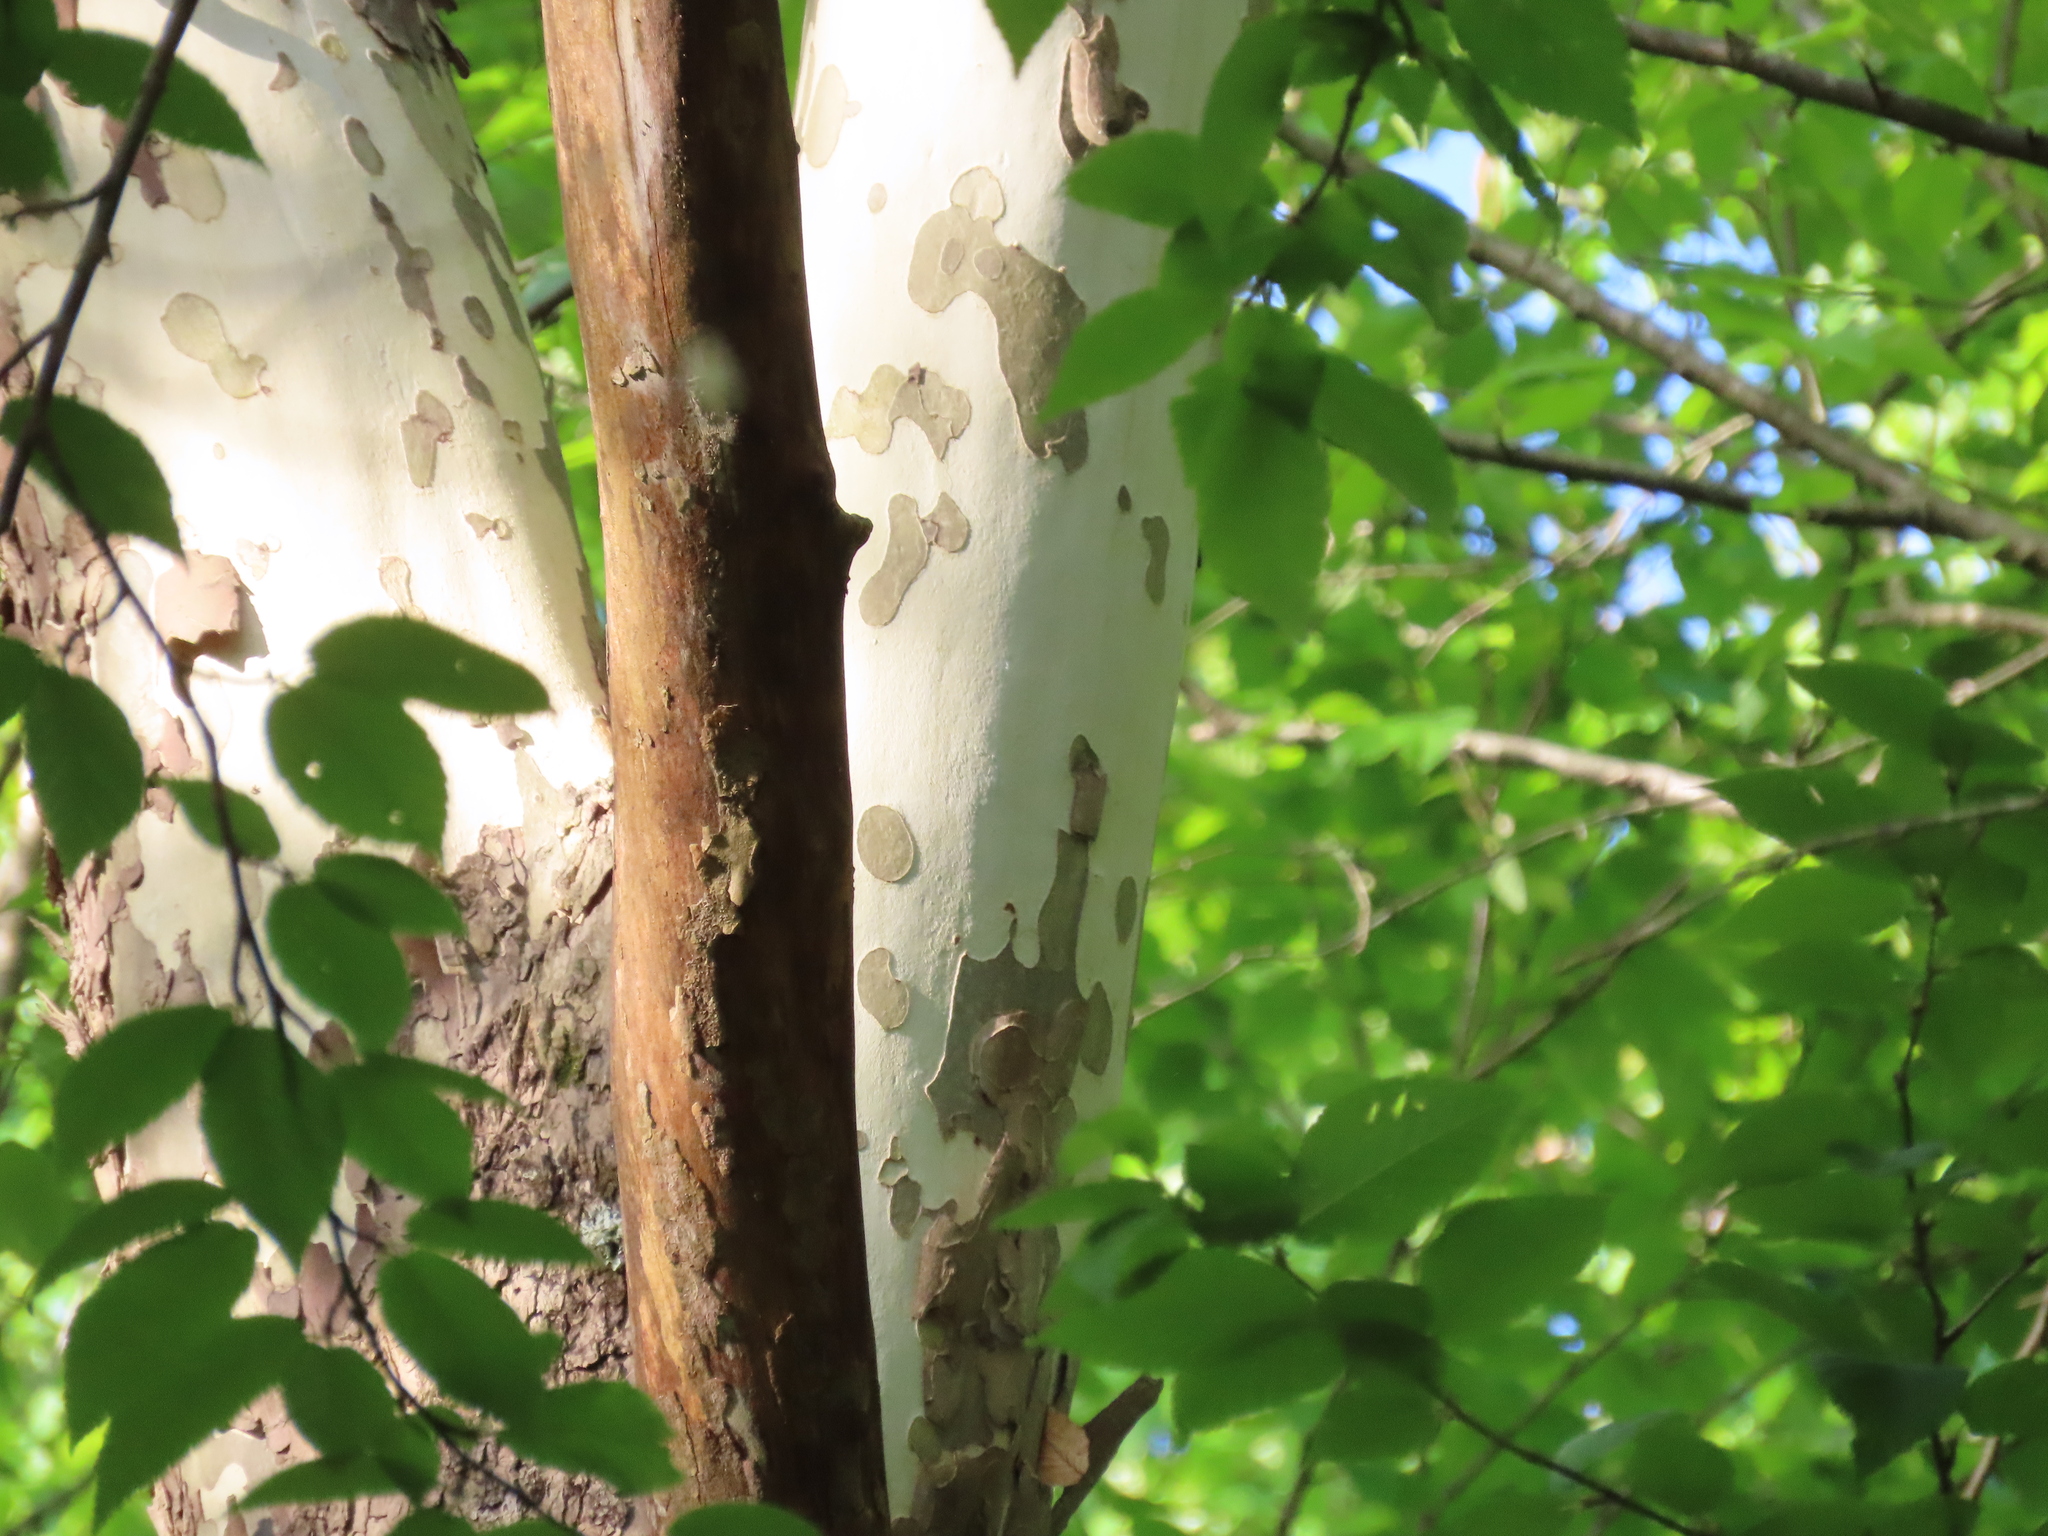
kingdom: Plantae
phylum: Tracheophyta
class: Magnoliopsida
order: Proteales
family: Platanaceae
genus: Platanus
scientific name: Platanus occidentalis
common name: American sycamore
